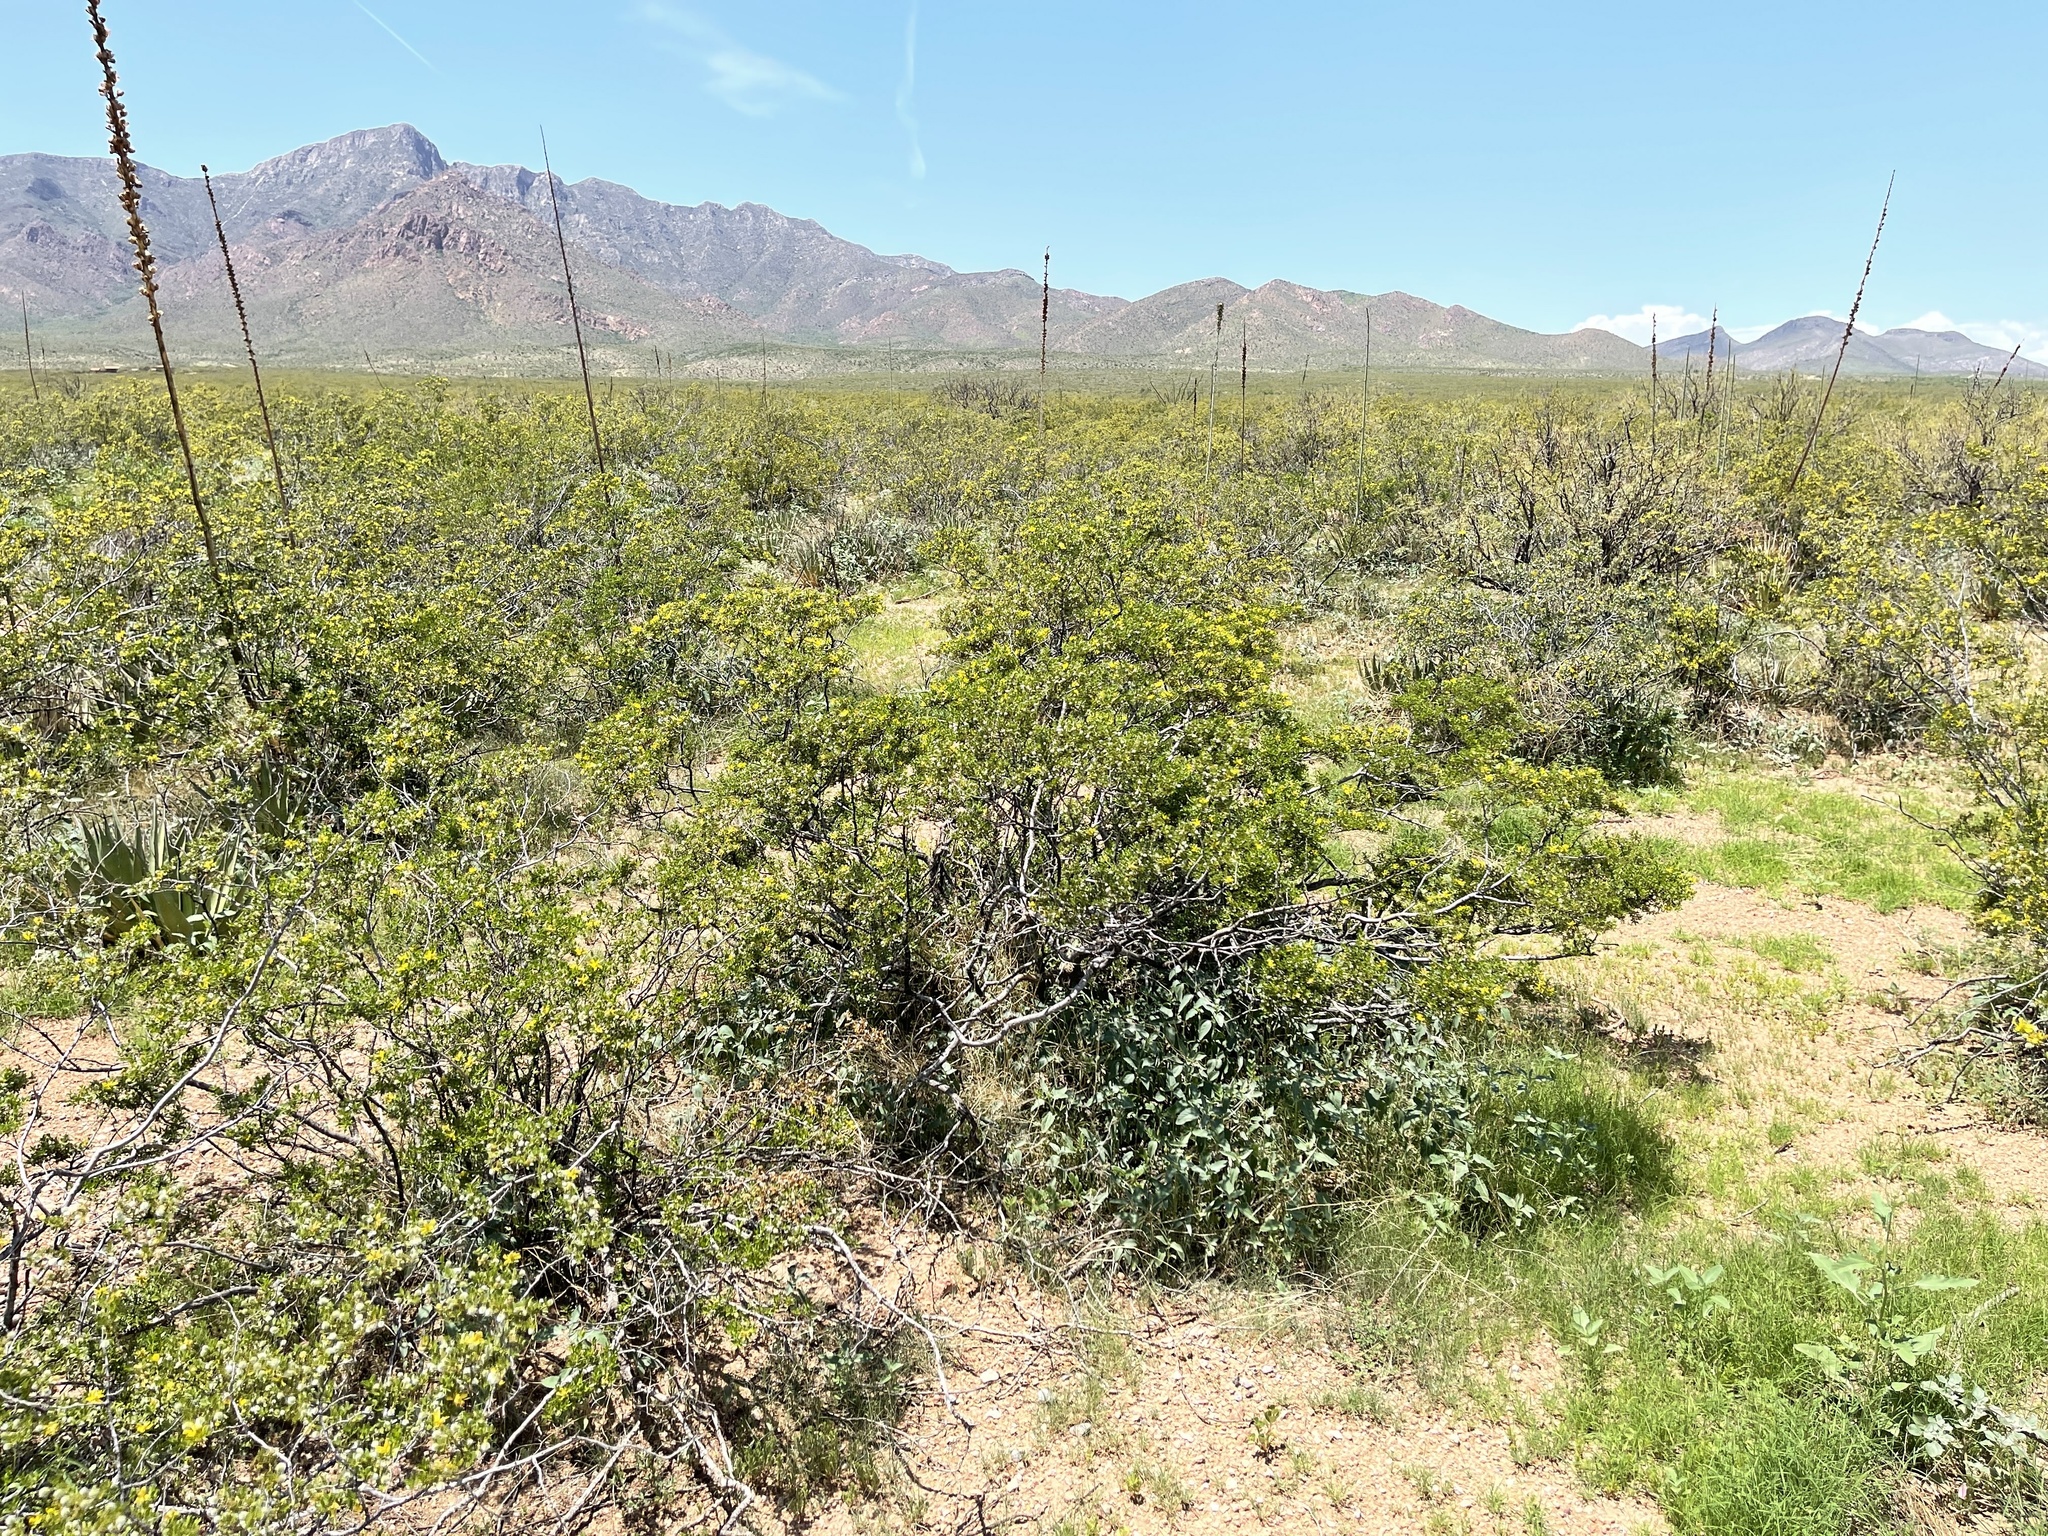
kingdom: Plantae
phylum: Tracheophyta
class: Magnoliopsida
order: Zygophyllales
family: Zygophyllaceae
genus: Larrea
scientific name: Larrea tridentata
